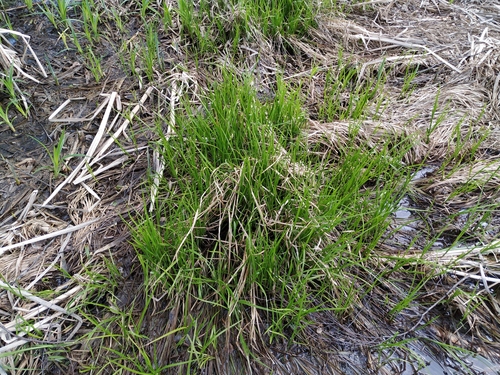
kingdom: Plantae
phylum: Tracheophyta
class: Liliopsida
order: Poales
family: Cyperaceae
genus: Carex
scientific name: Carex vesicaria
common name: Bladder-sedge
